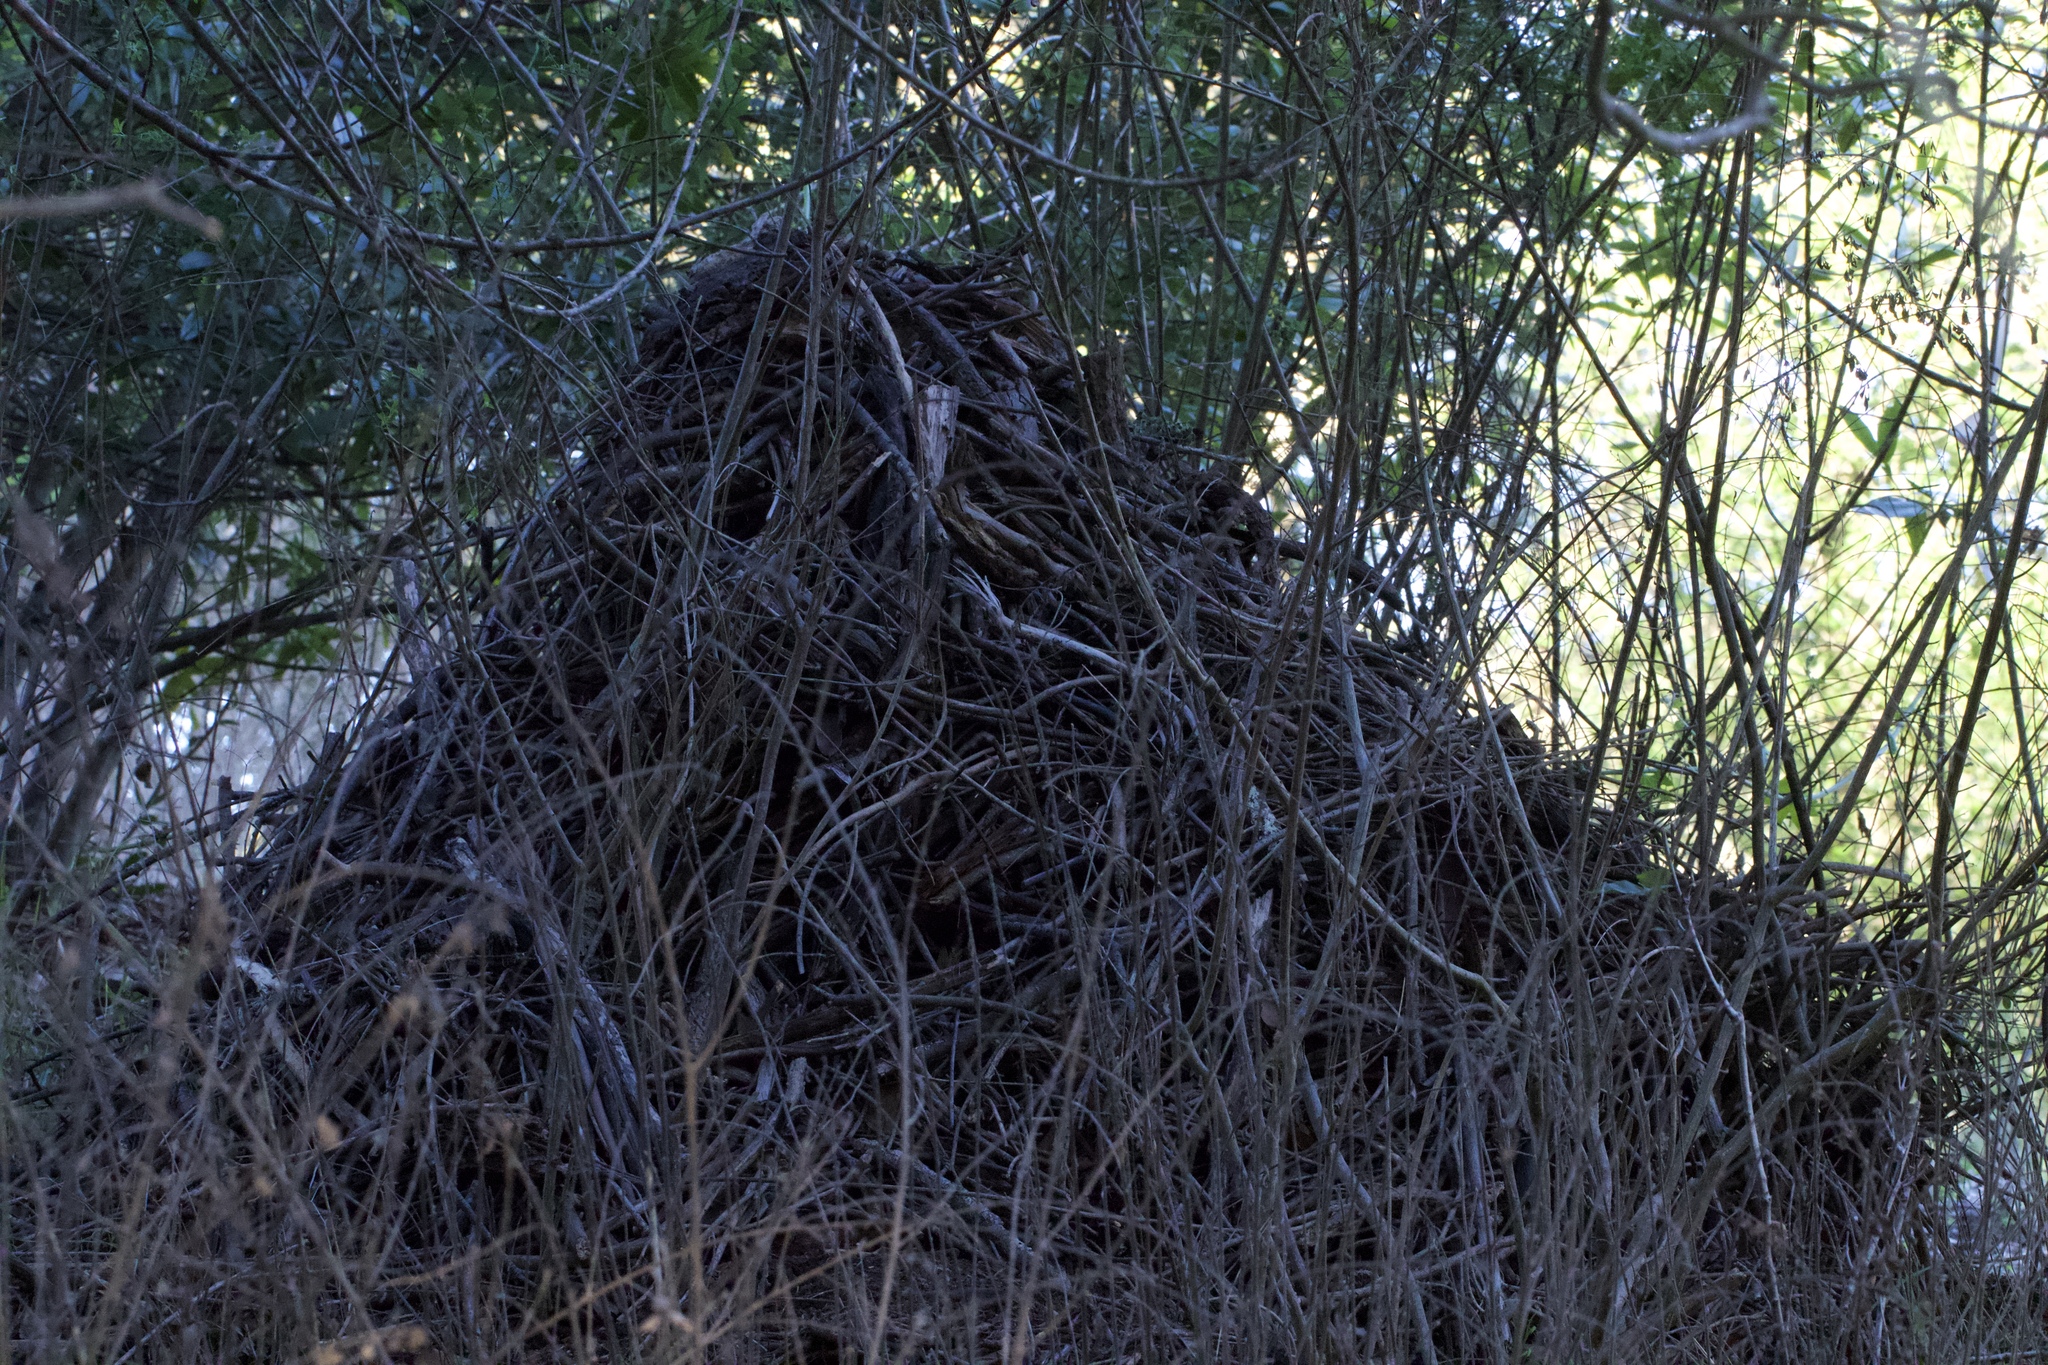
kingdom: Animalia
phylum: Chordata
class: Mammalia
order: Rodentia
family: Cricetidae
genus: Neotoma
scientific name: Neotoma fuscipes
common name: Dusky-footed woodrat
